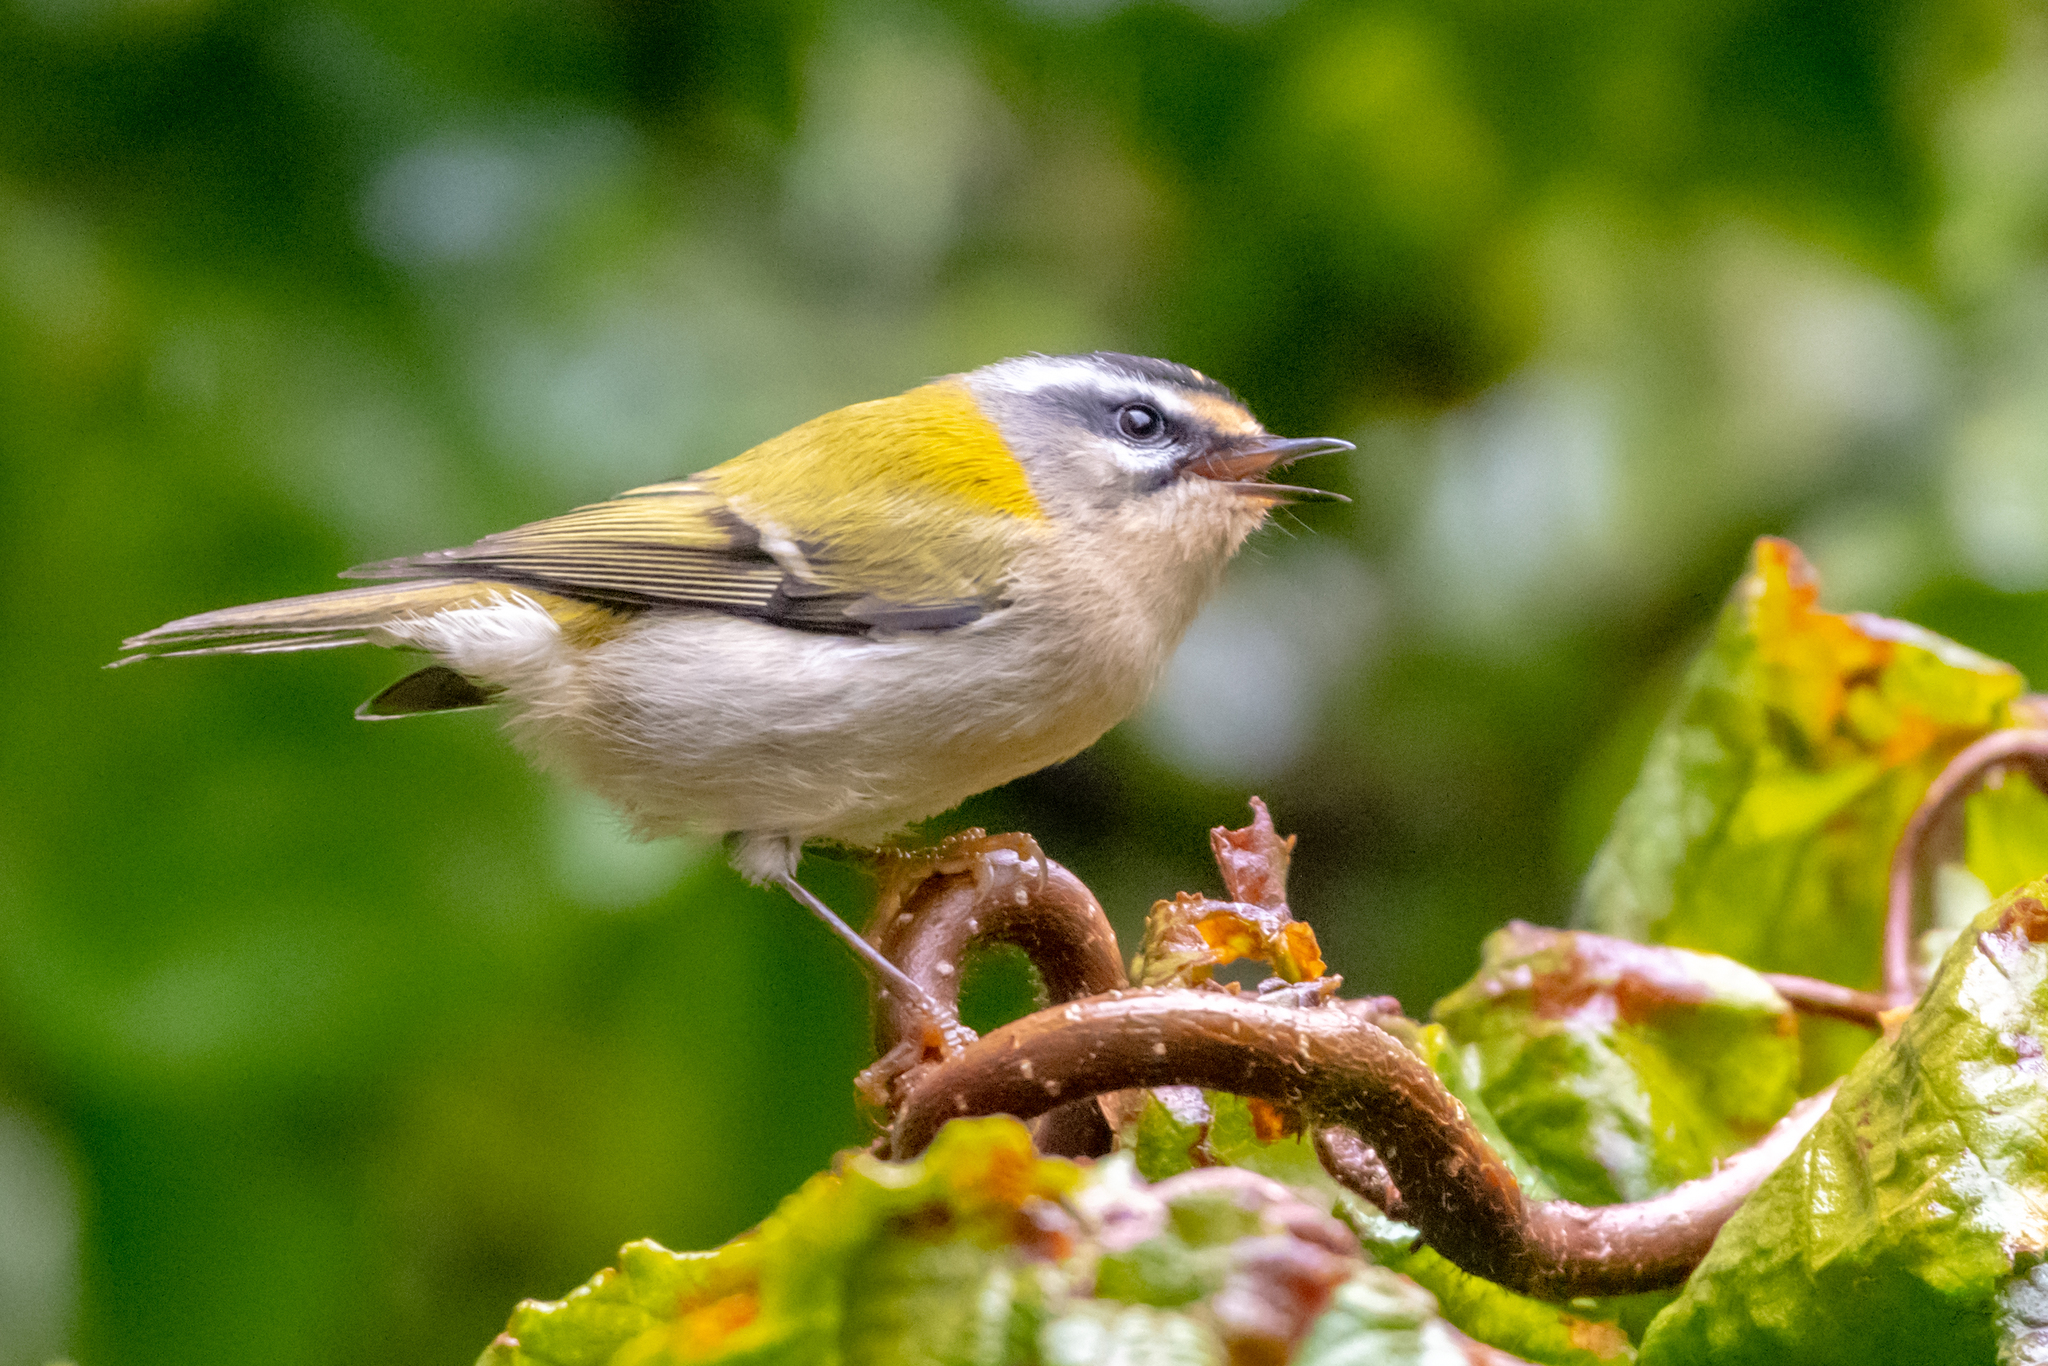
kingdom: Animalia
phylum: Chordata
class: Aves
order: Passeriformes
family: Regulidae
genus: Regulus
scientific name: Regulus ignicapilla
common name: Firecrest
